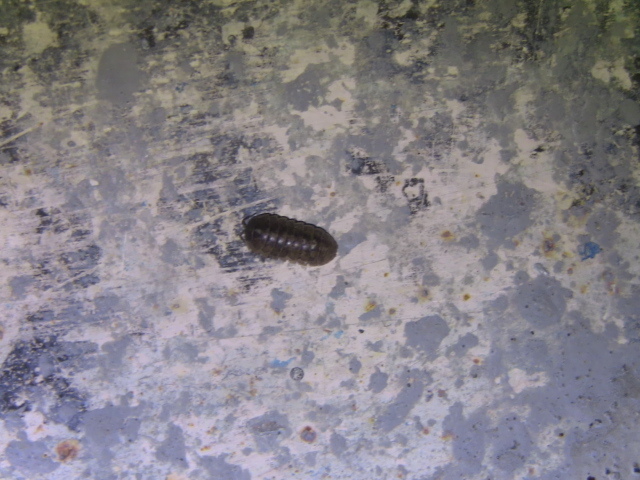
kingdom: Animalia
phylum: Arthropoda
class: Malacostraca
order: Isopoda
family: Armadillidiidae
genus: Armadillidium
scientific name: Armadillidium vulgare
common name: Common pill woodlouse
